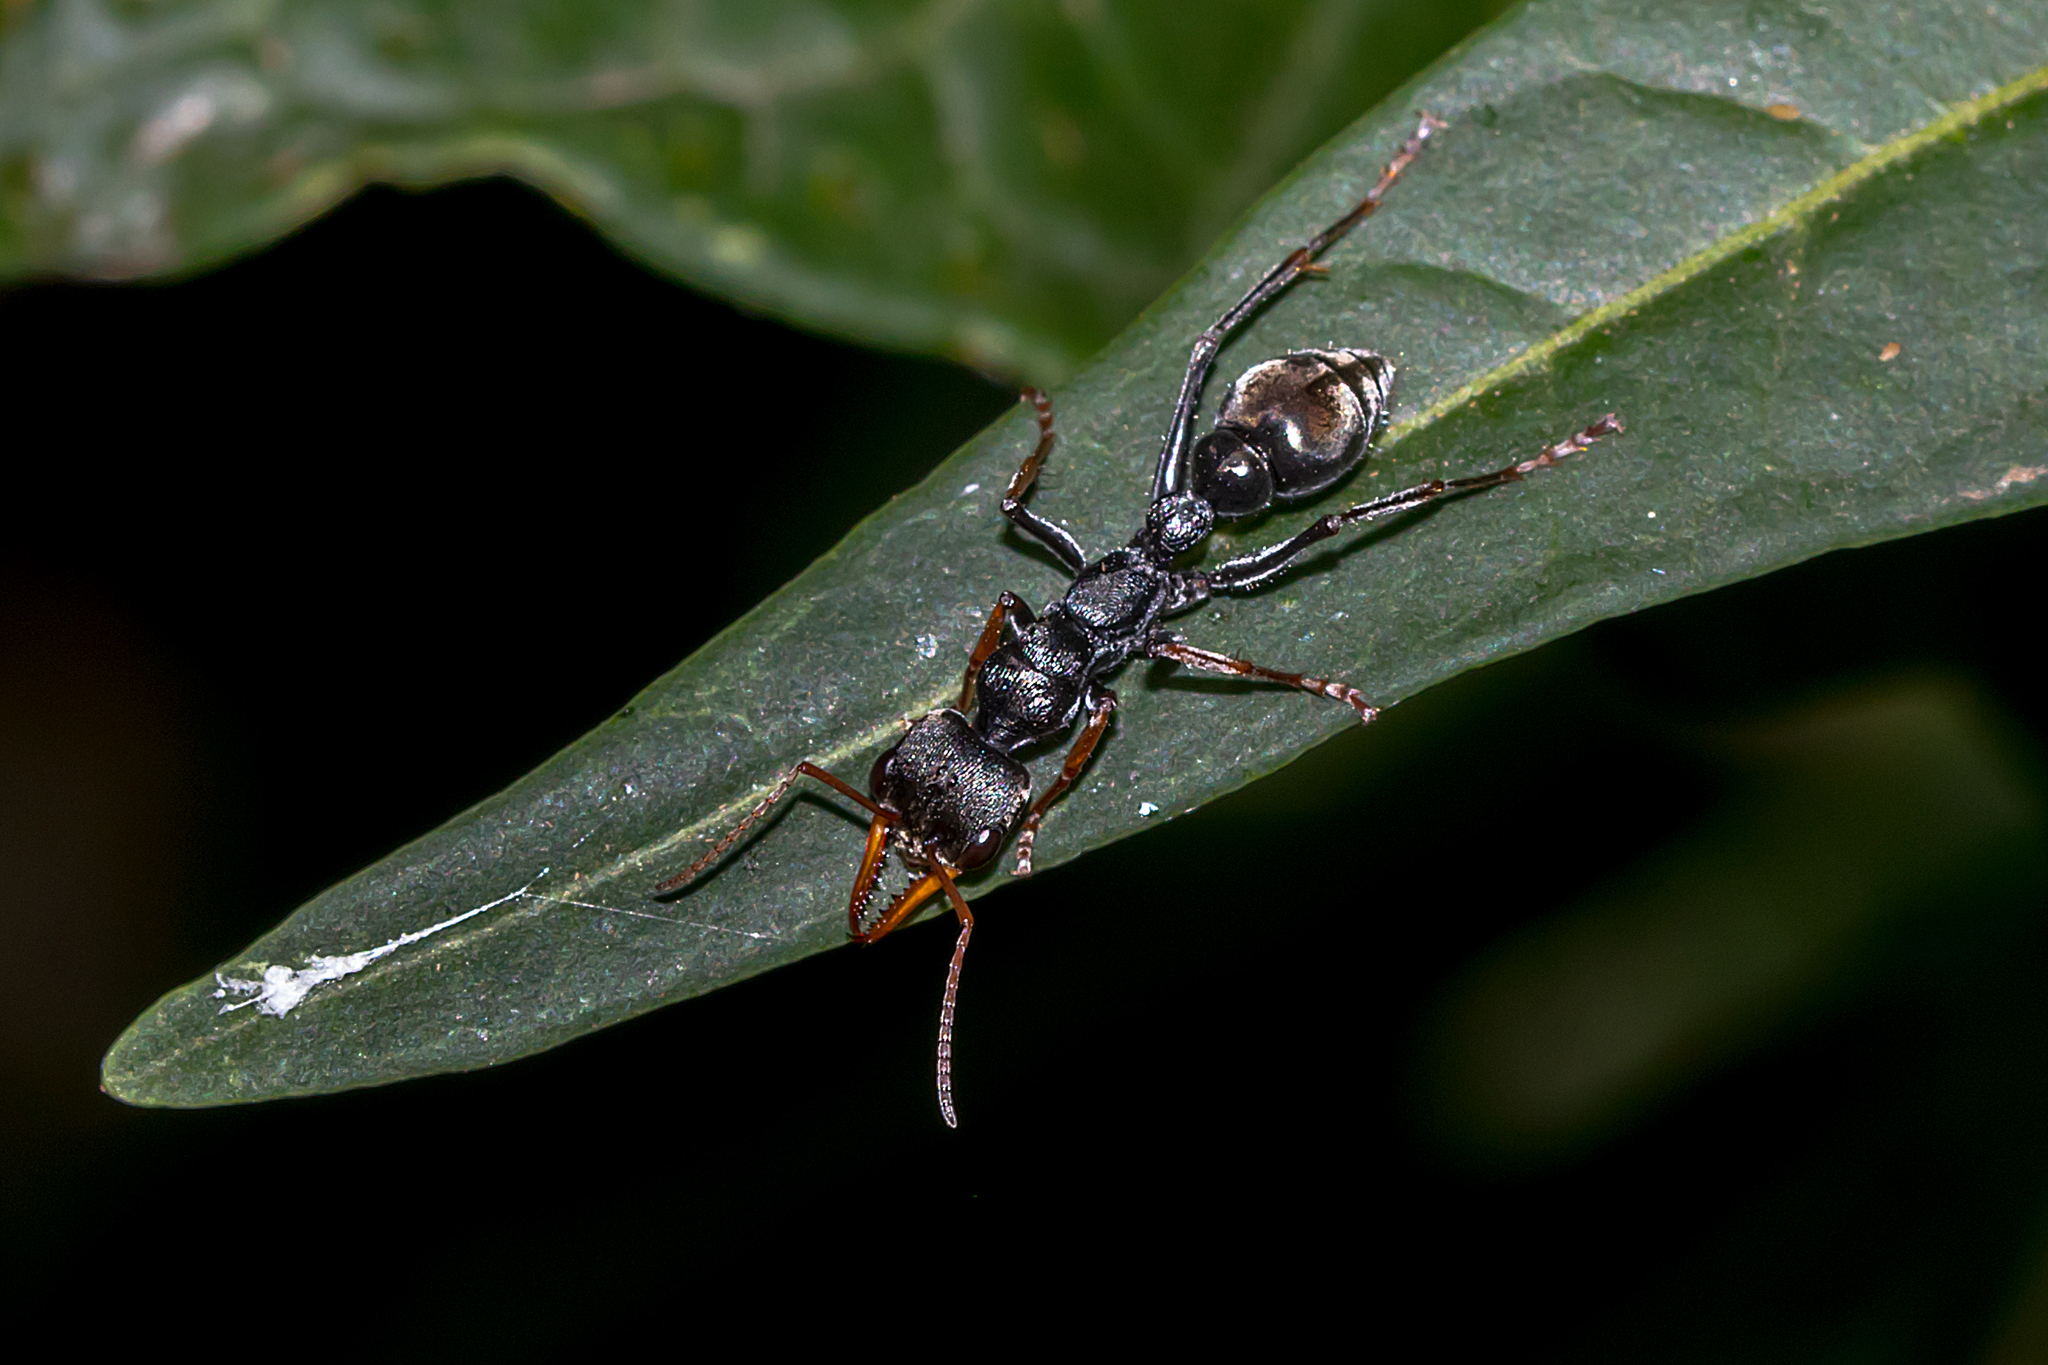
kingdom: Animalia
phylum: Arthropoda
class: Insecta
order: Hymenoptera
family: Formicidae
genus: Myrmecia
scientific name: Myrmecia pilosula
